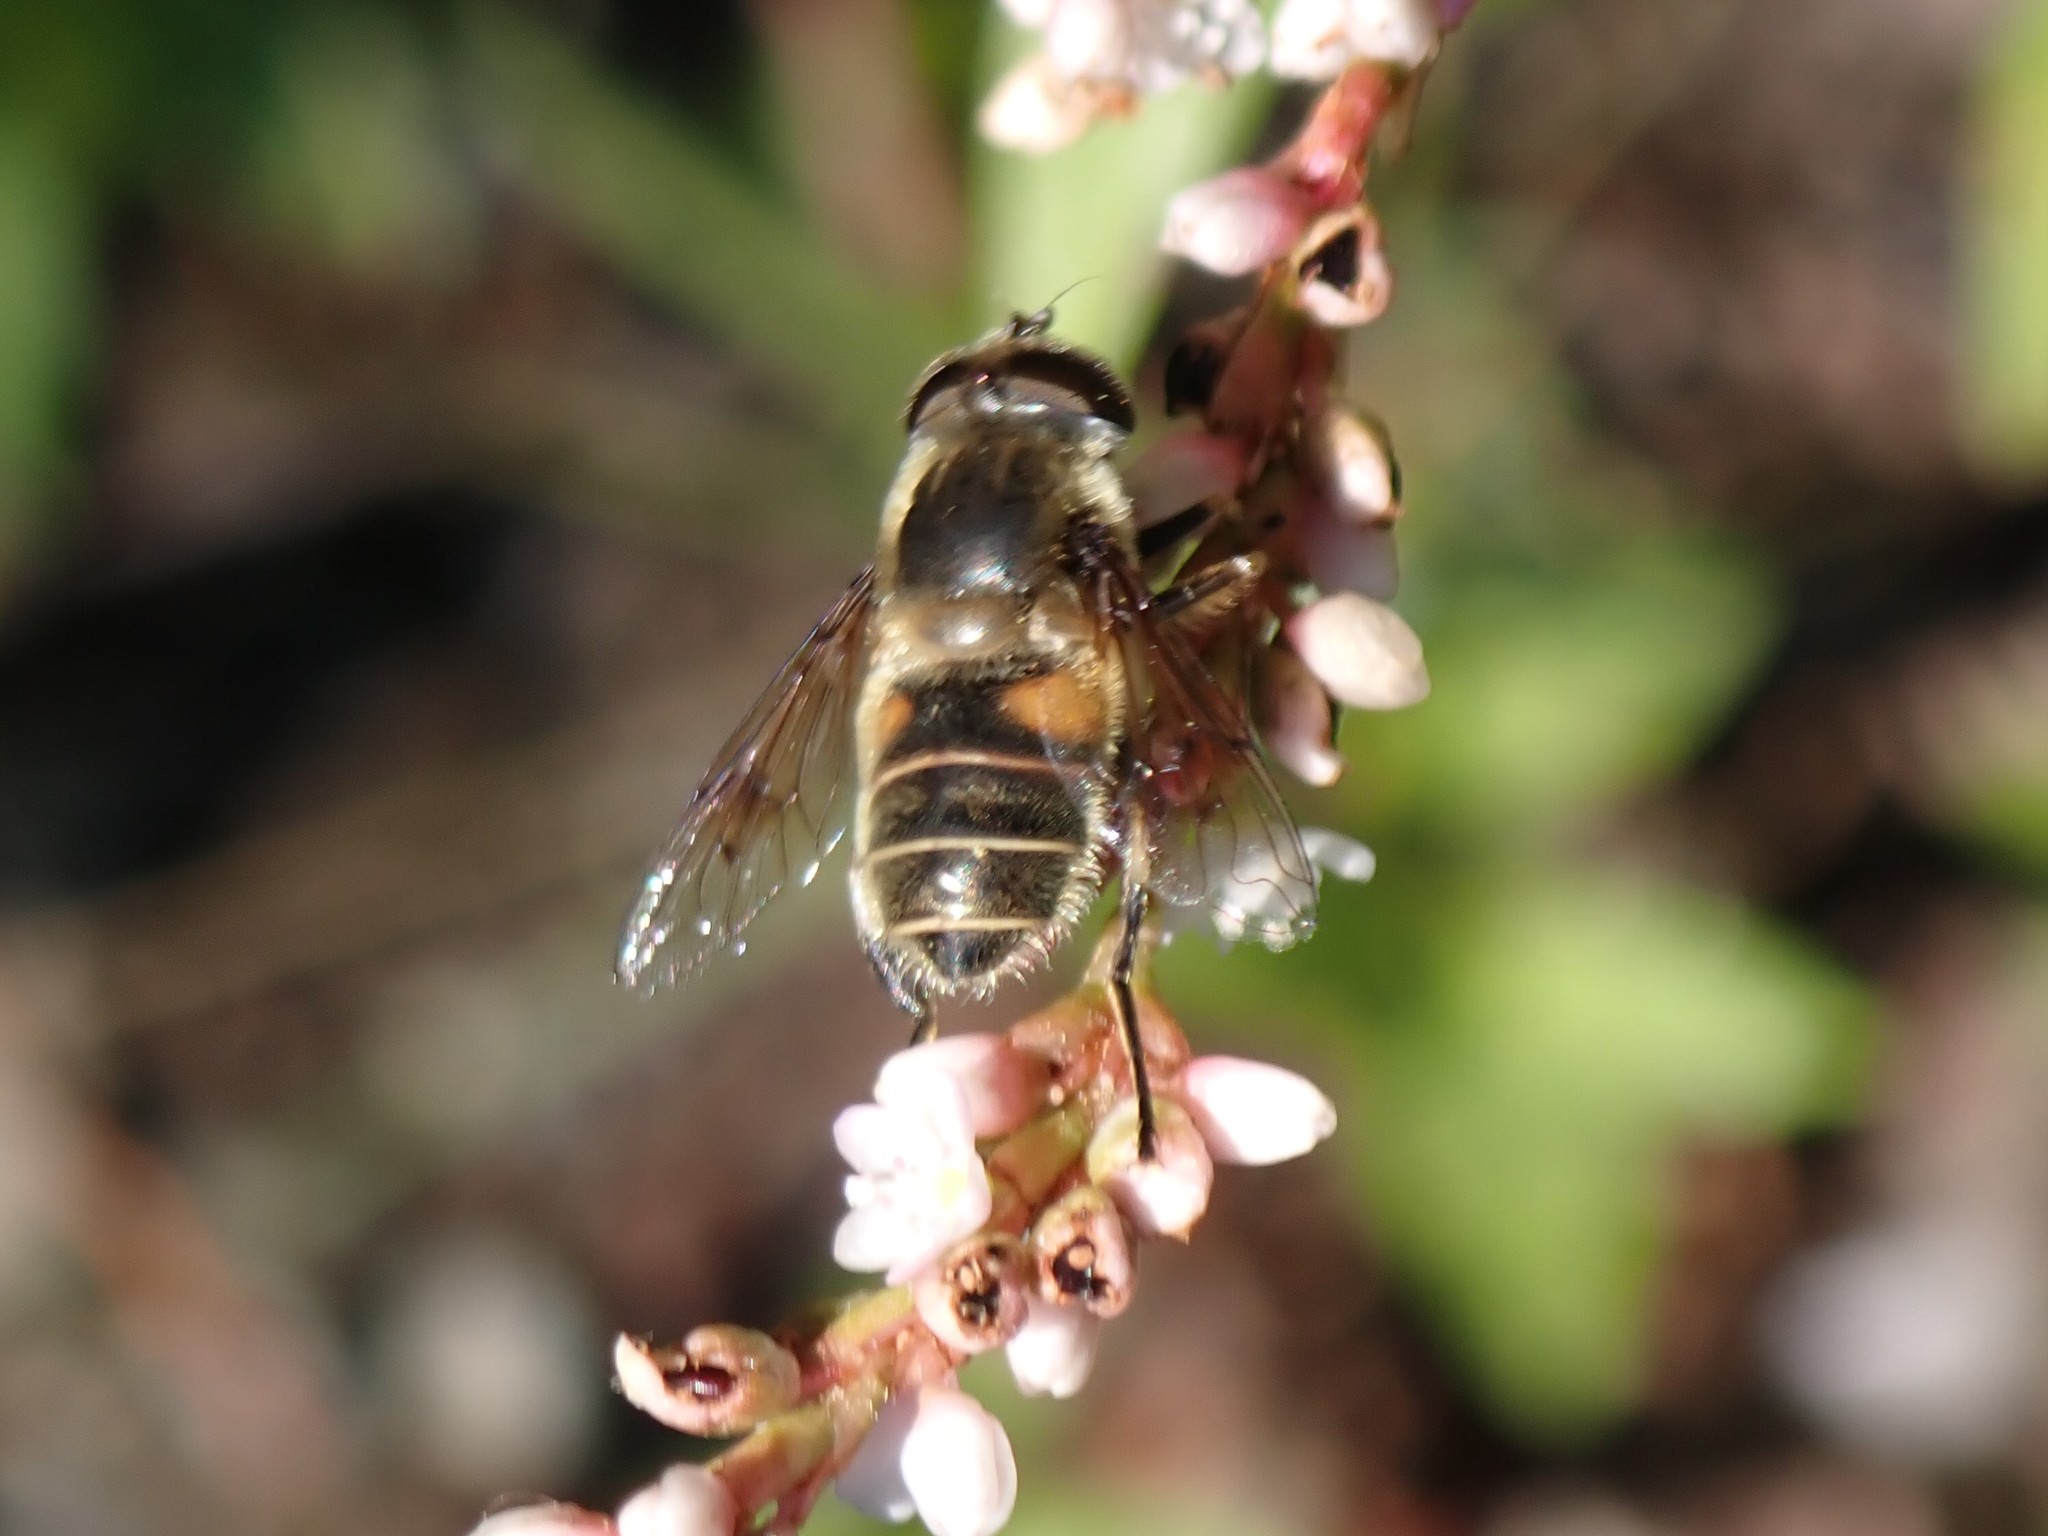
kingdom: Animalia
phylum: Arthropoda
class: Insecta
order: Diptera
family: Syrphidae
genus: Eristalis
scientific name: Eristalis anthophorina
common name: Orange-spotted drone fly
